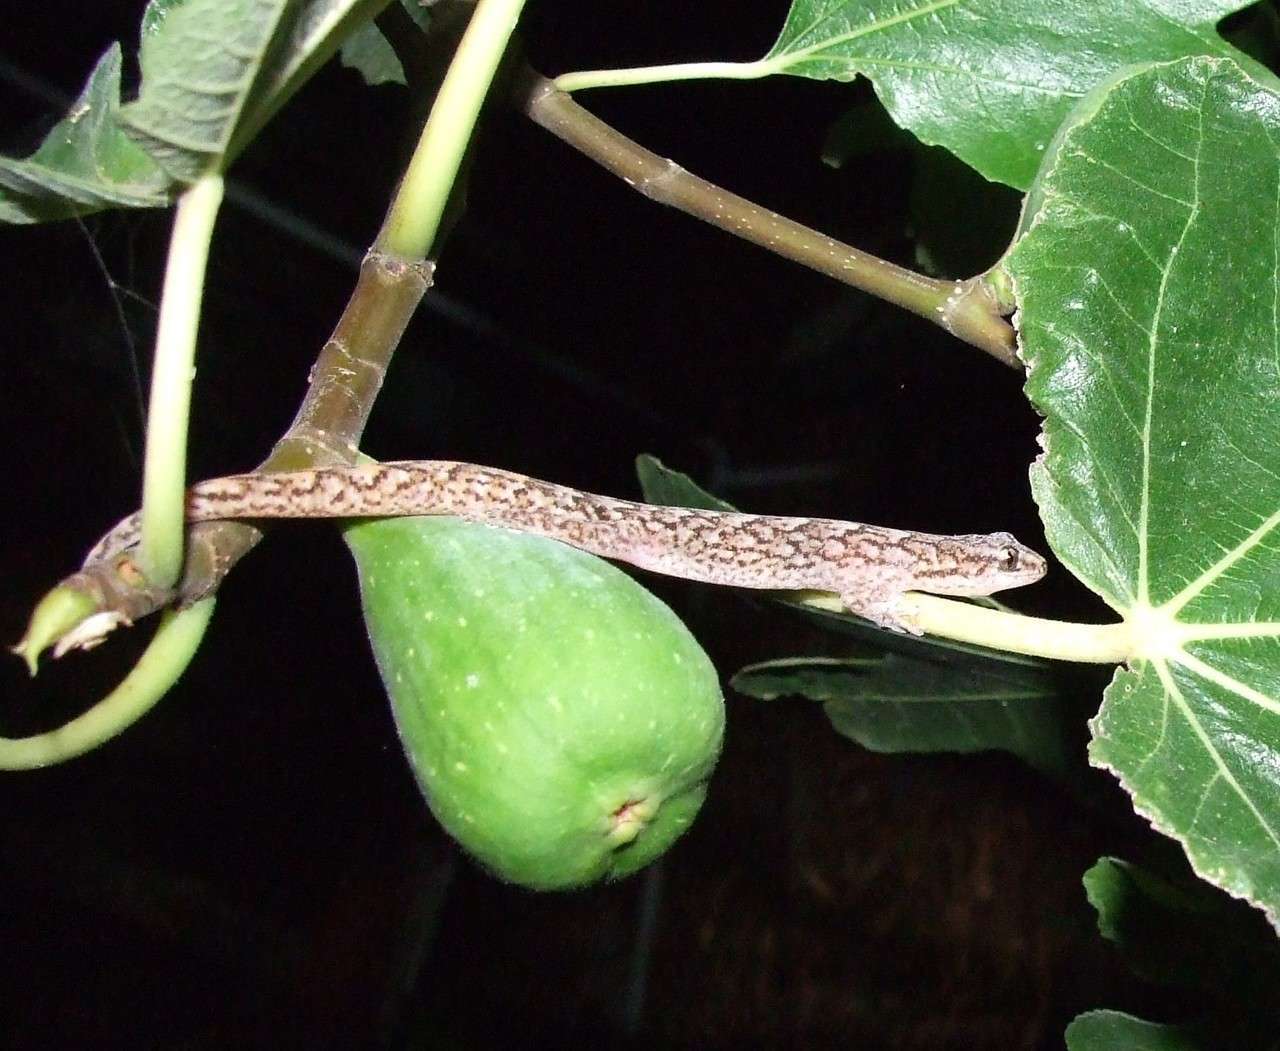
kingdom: Animalia
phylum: Chordata
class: Squamata
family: Gekkonidae
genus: Christinus
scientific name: Christinus marmoratus
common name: Marbled gecko
